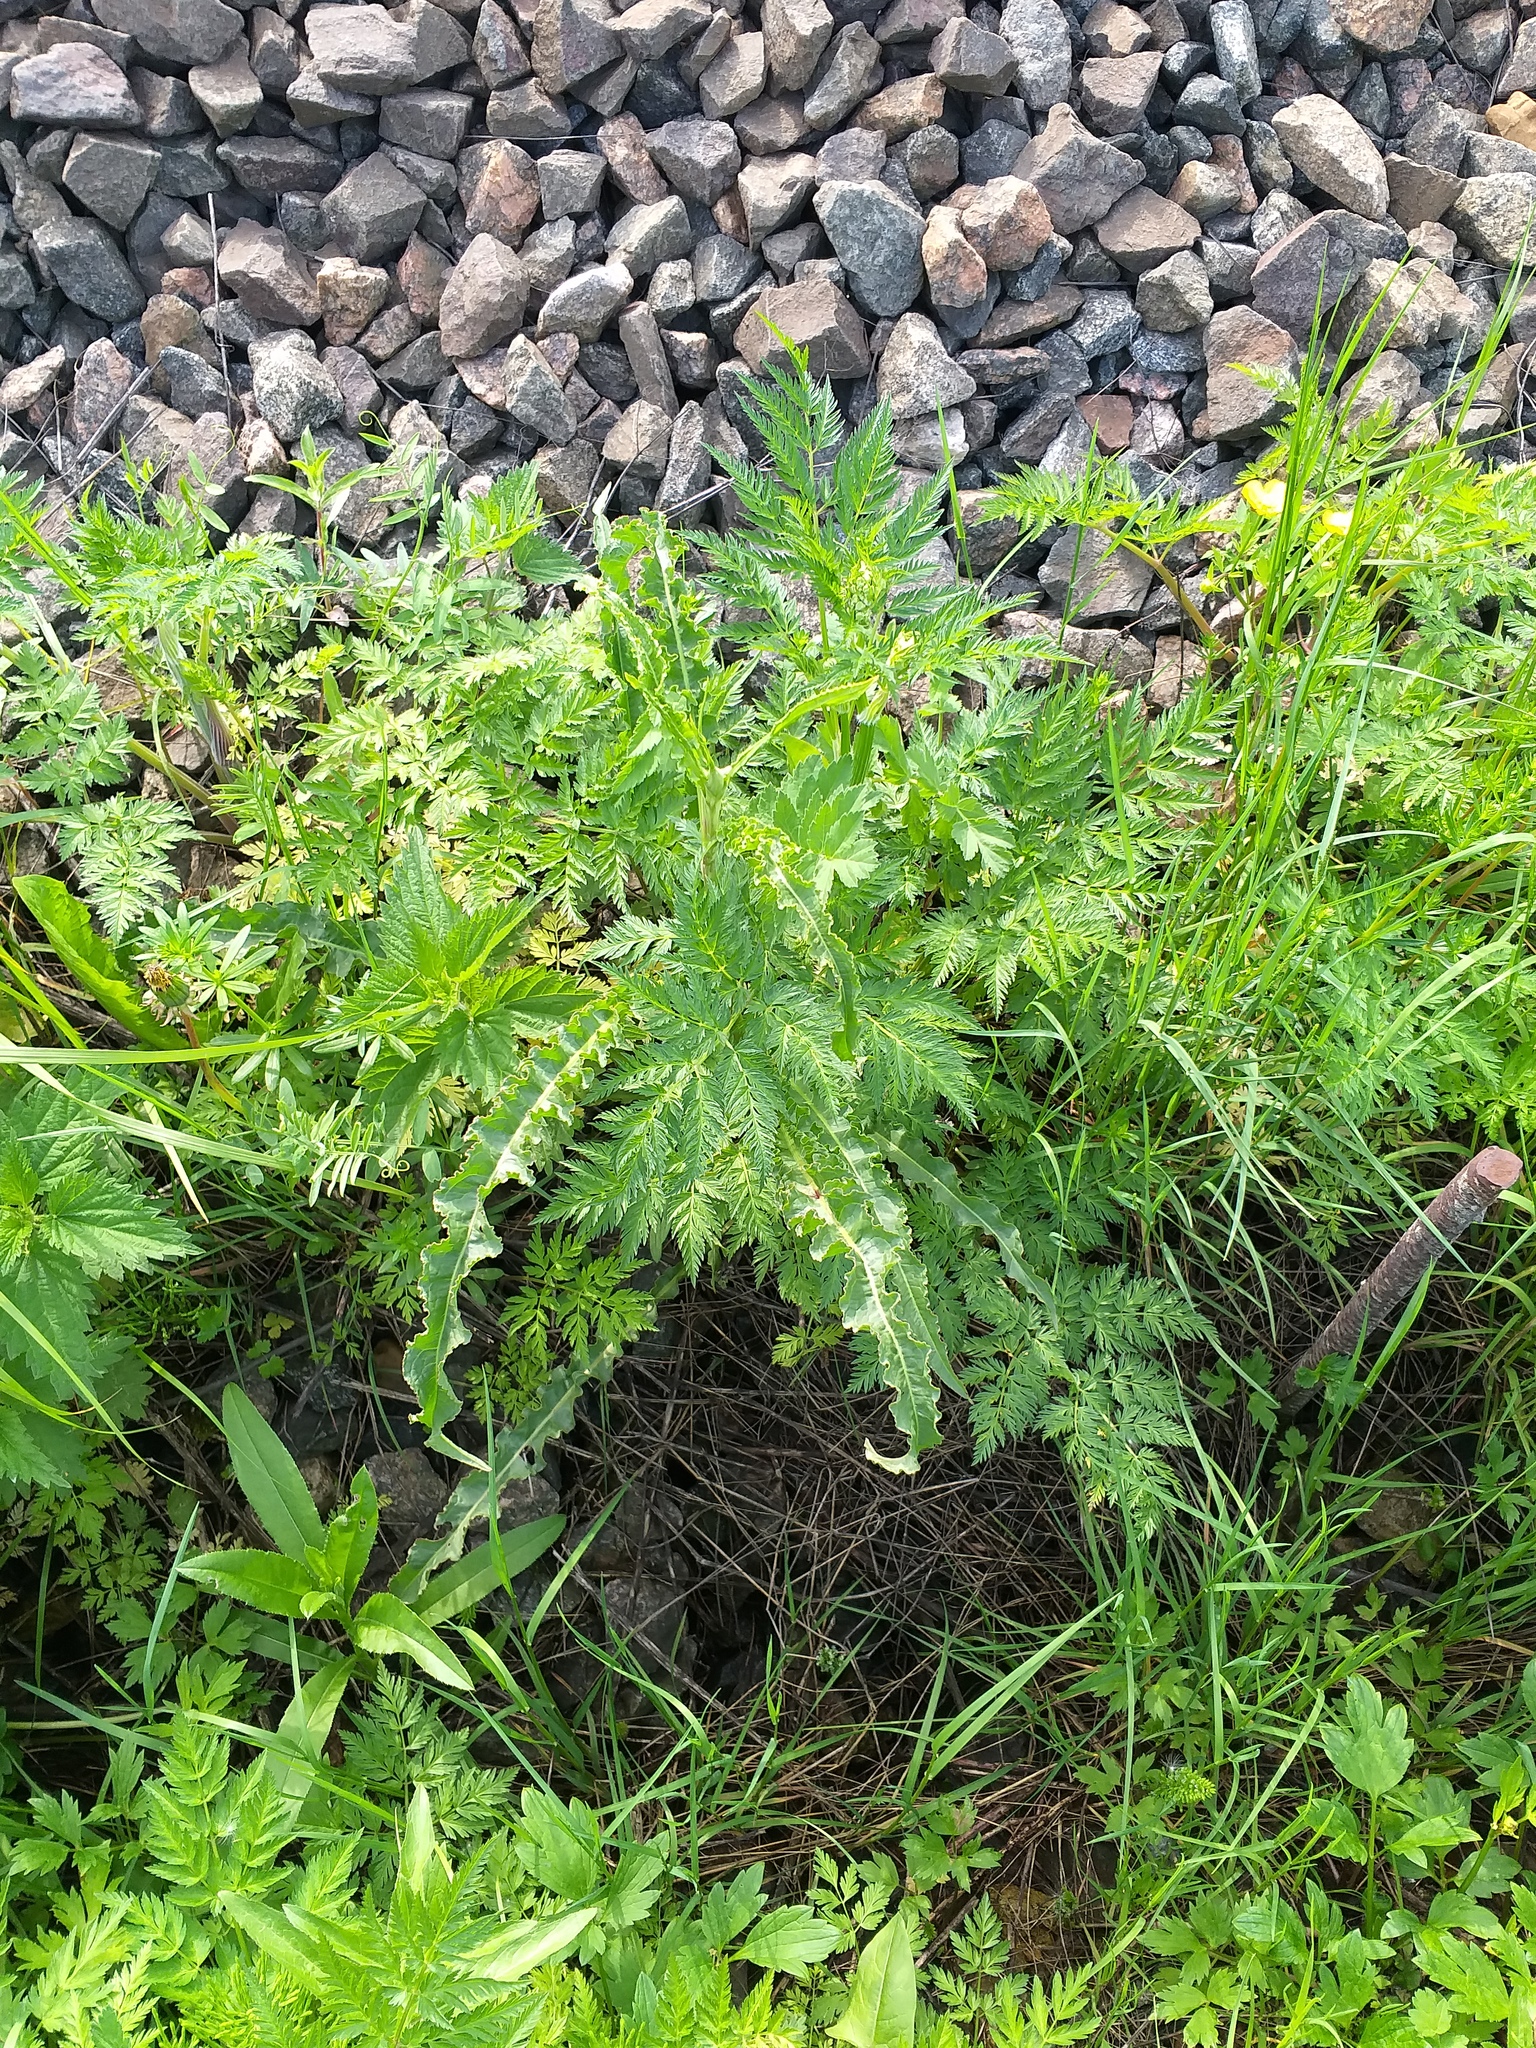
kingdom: Plantae
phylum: Tracheophyta
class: Magnoliopsida
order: Apiales
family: Apiaceae
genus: Anthriscus
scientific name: Anthriscus sylvestris
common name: Cow parsley
